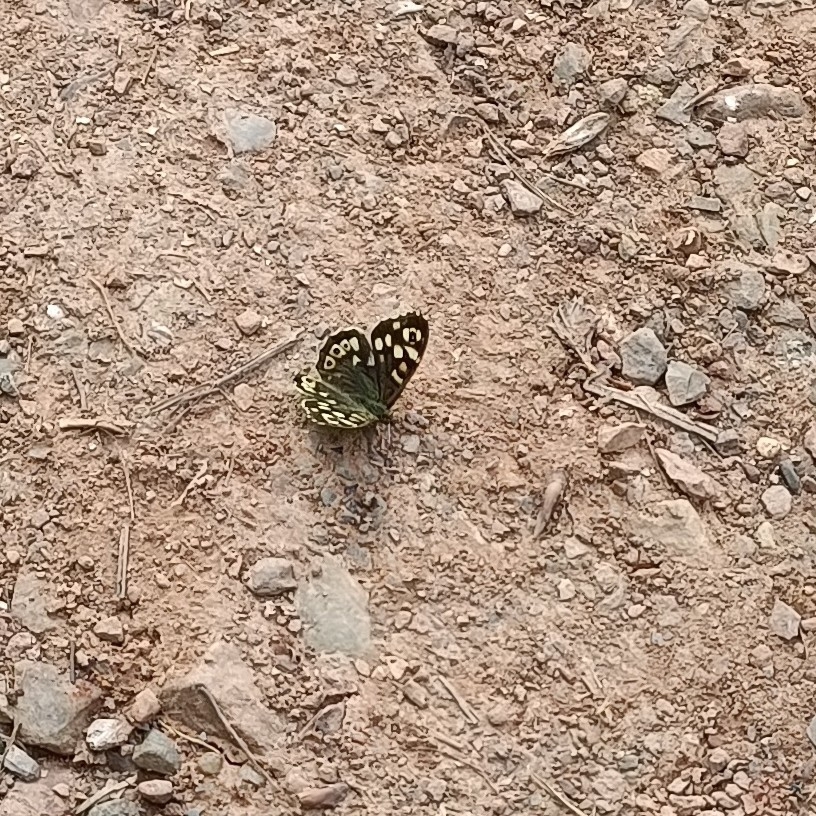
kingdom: Animalia
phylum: Arthropoda
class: Insecta
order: Lepidoptera
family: Nymphalidae
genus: Pararge
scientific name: Pararge aegeria
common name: Speckled wood
